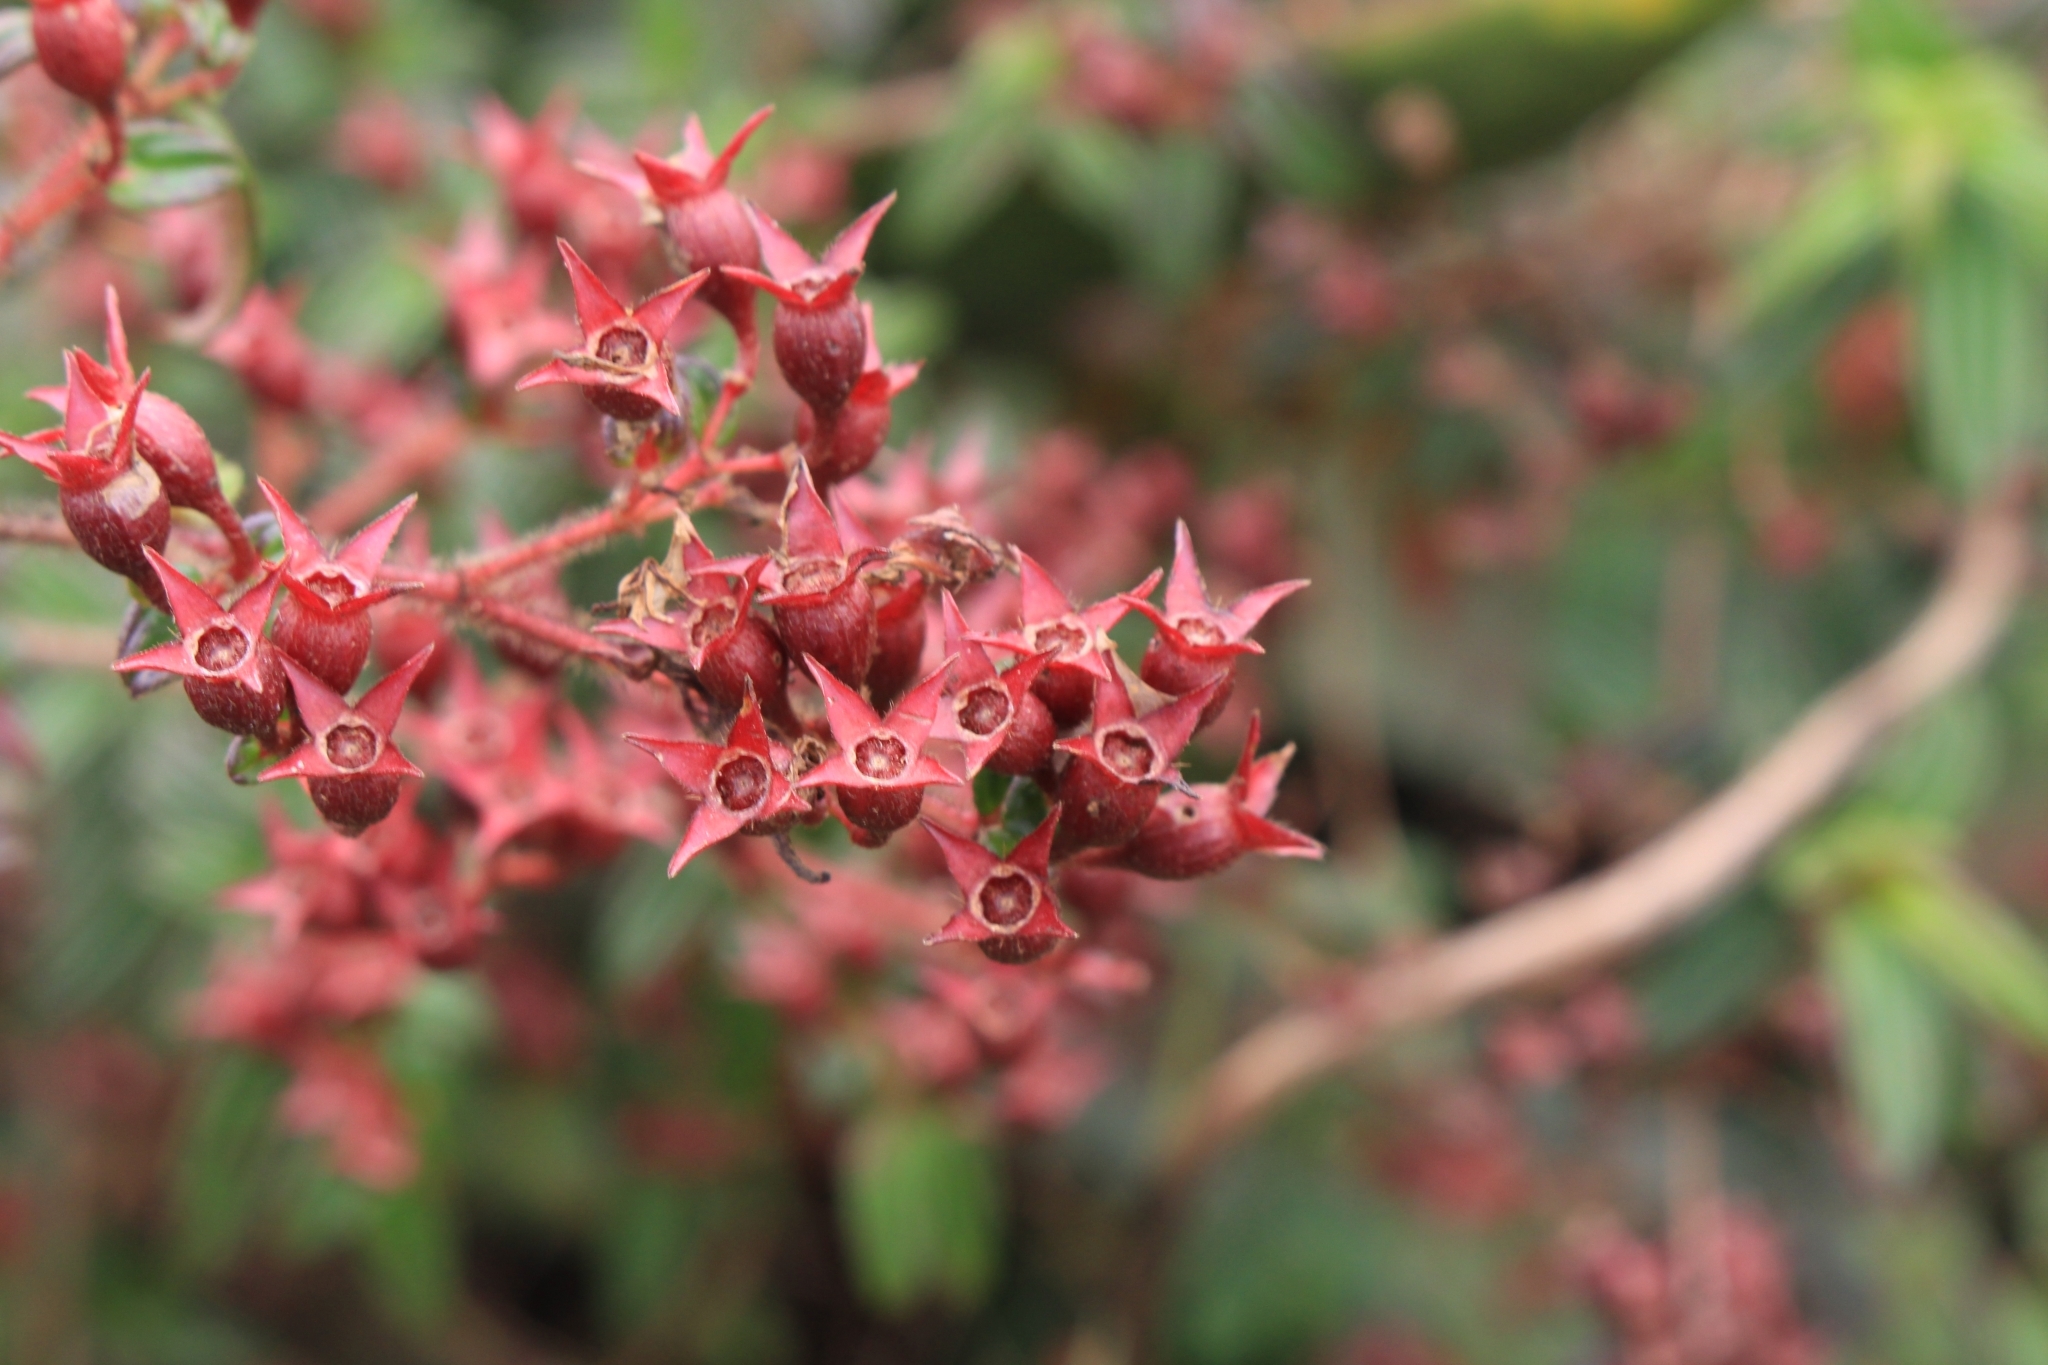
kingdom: Plantae
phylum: Tracheophyta
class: Magnoliopsida
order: Myrtales
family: Melastomataceae
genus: Monochaetum
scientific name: Monochaetum floribundum
